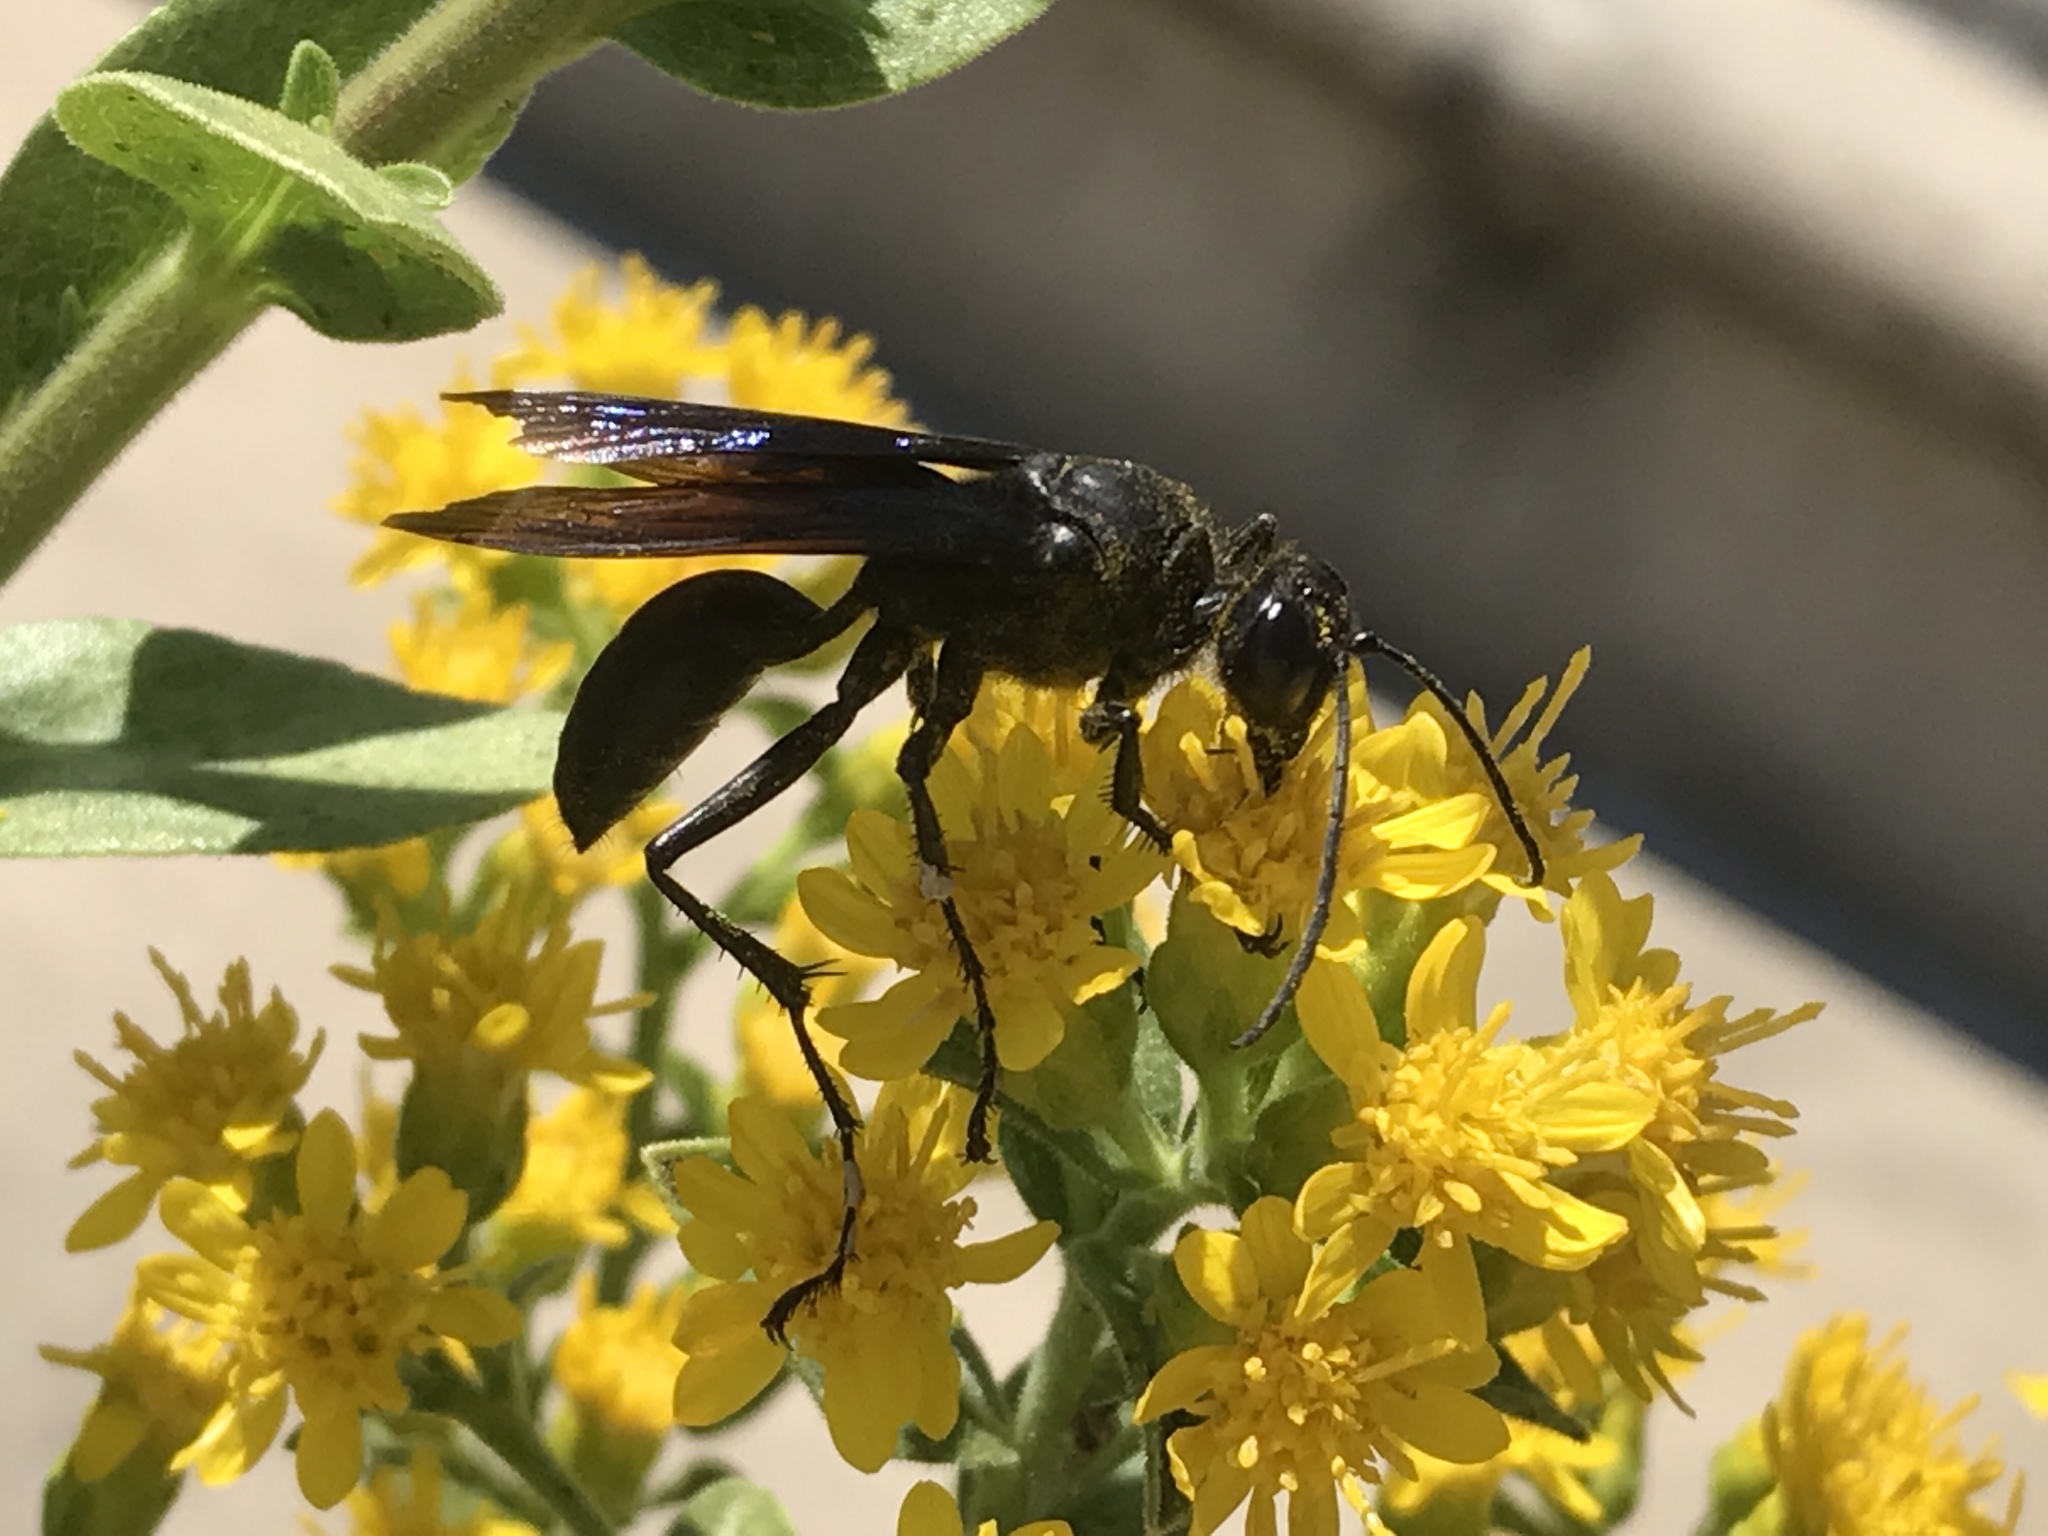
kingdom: Animalia
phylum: Arthropoda
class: Insecta
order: Hymenoptera
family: Sphecidae
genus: Sphex
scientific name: Sphex pensylvanicus
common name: Great black digger wasp
